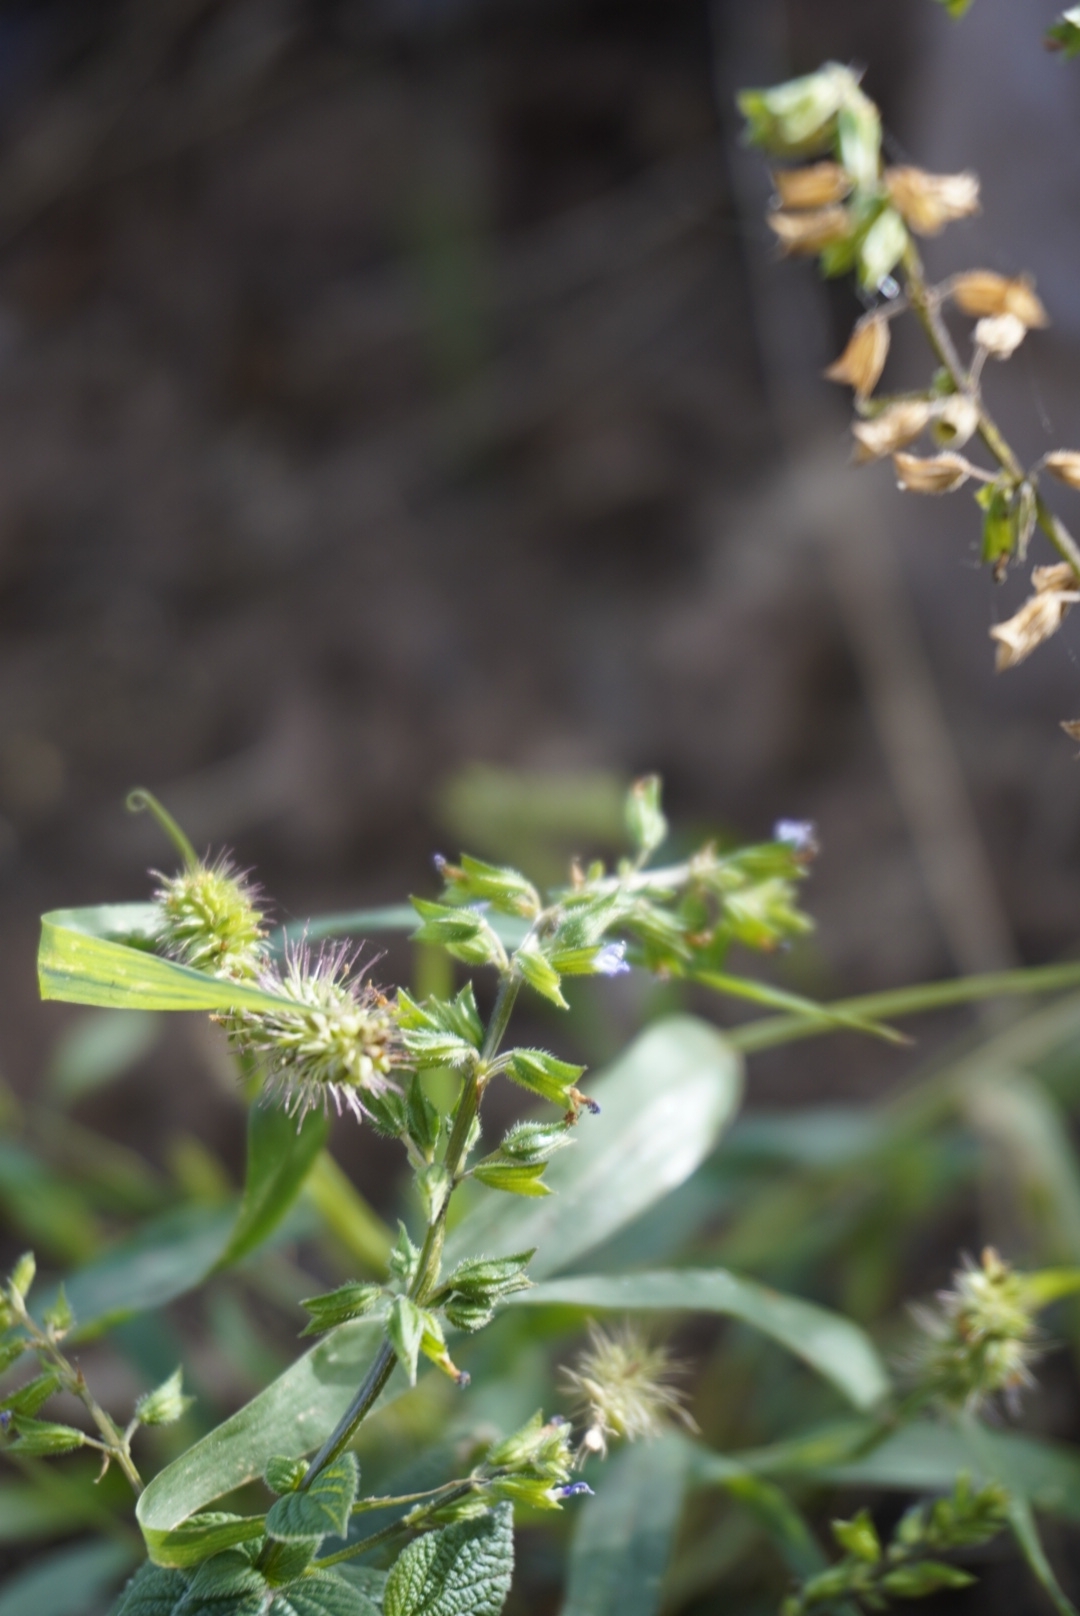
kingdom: Plantae
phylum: Tracheophyta
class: Magnoliopsida
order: Lamiales
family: Lamiaceae
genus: Salvia
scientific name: Salvia tiliifolia
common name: Lindenleaf sage
